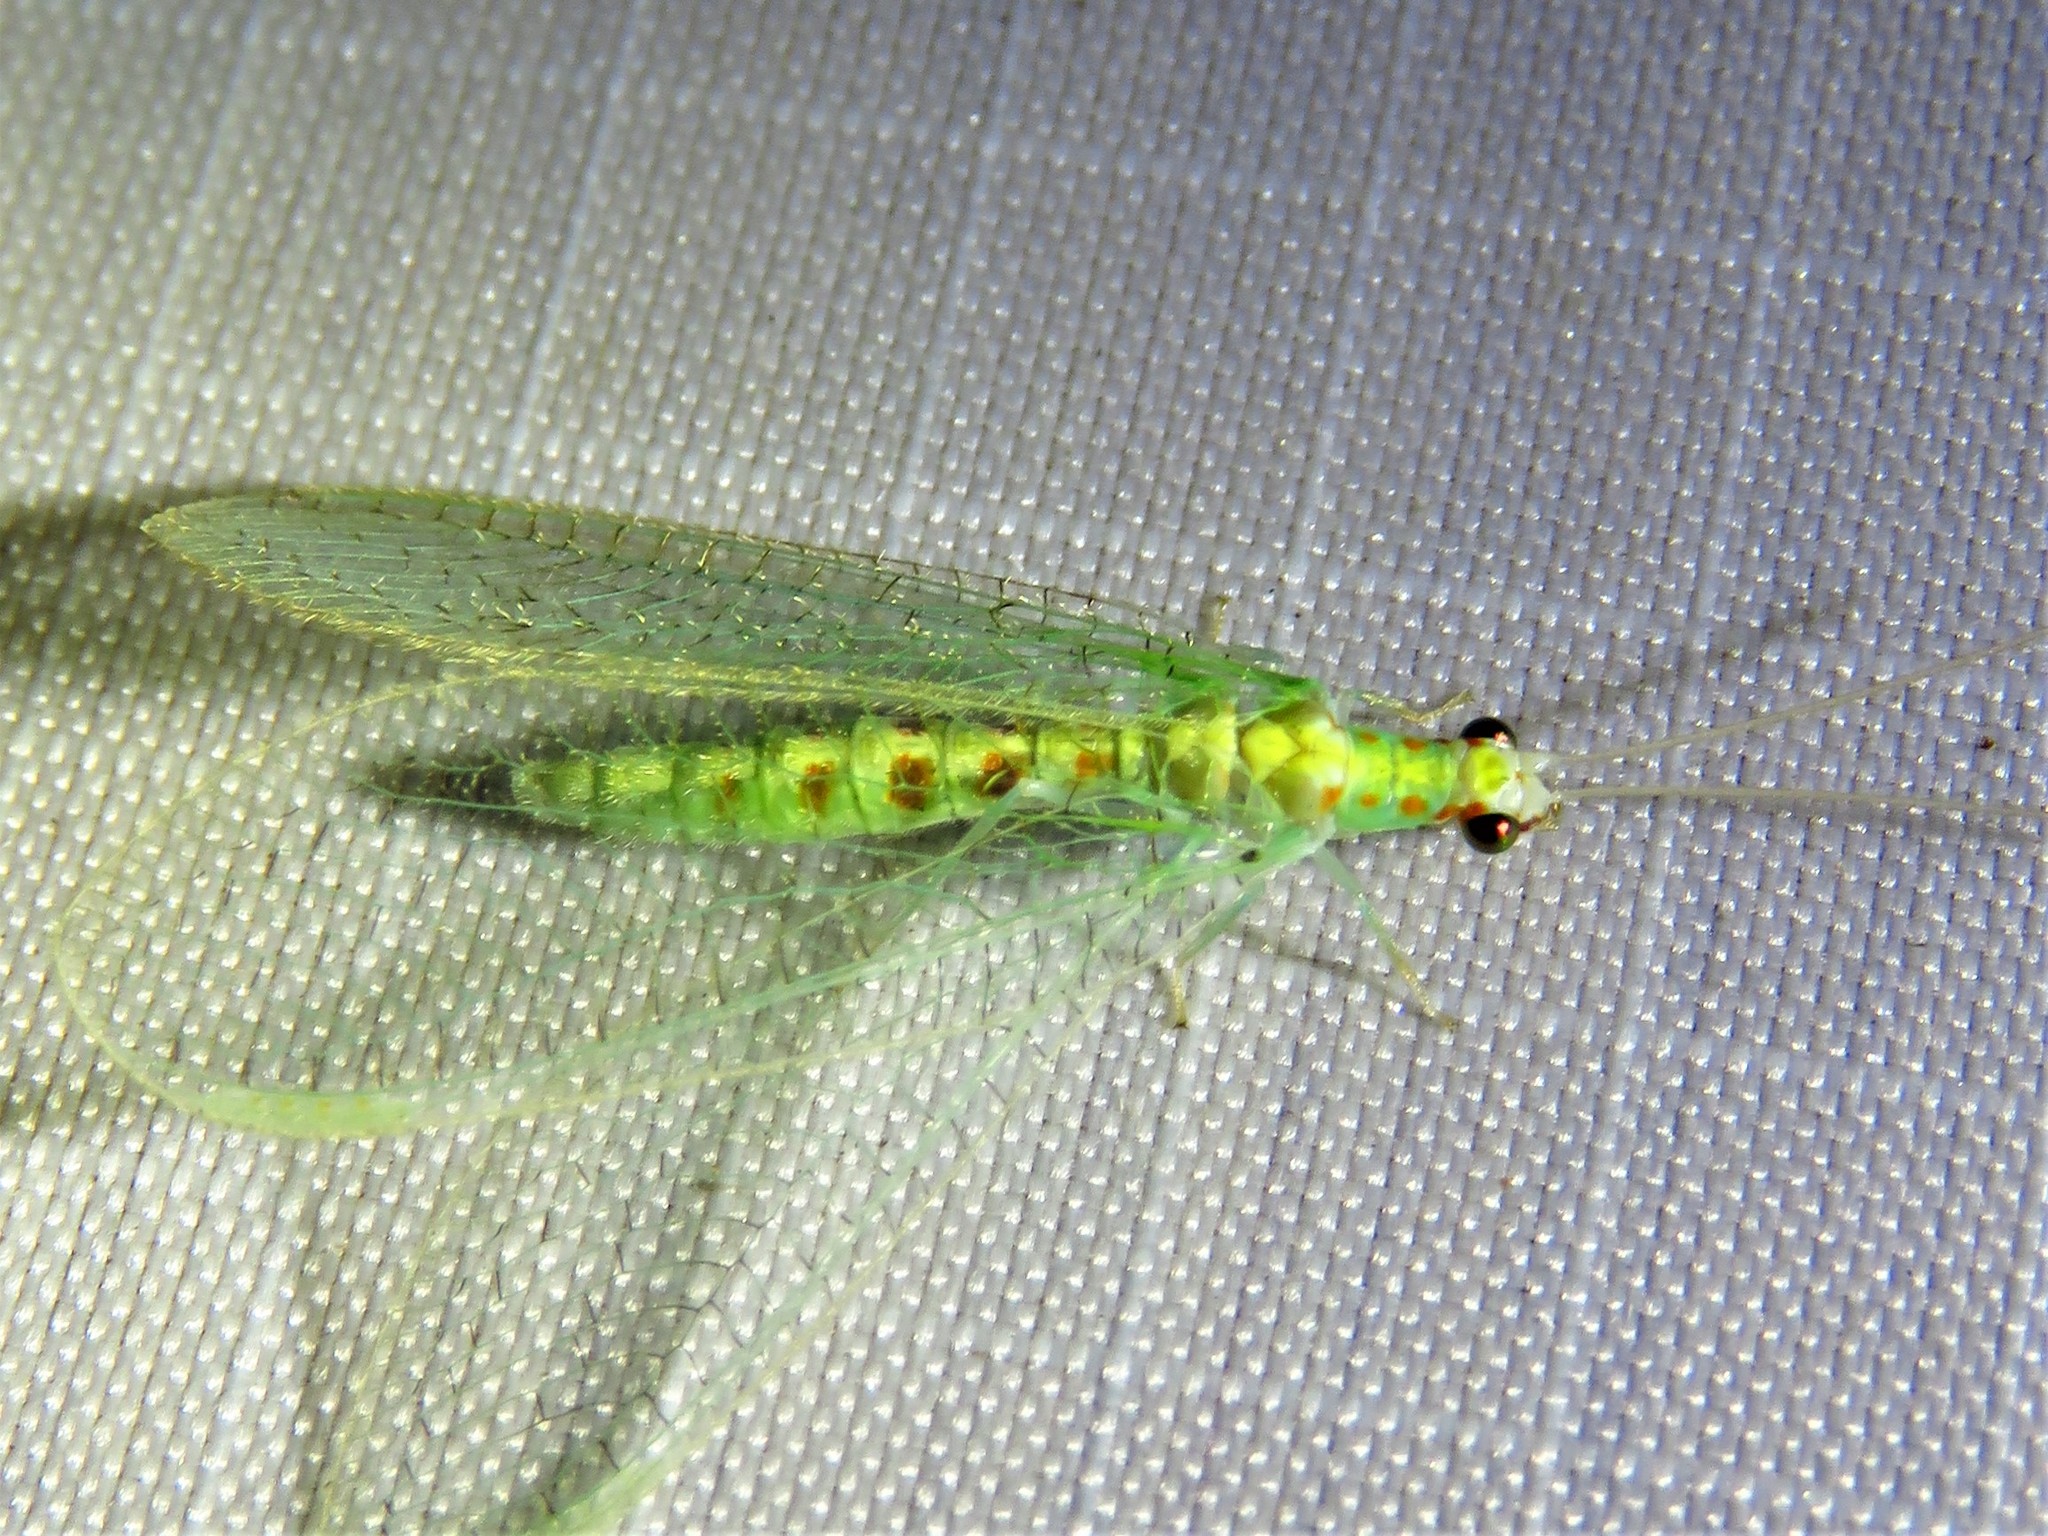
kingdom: Animalia
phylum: Arthropoda
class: Insecta
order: Neuroptera
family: Chrysopidae
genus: Chrysopa
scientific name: Chrysopa quadripunctata
